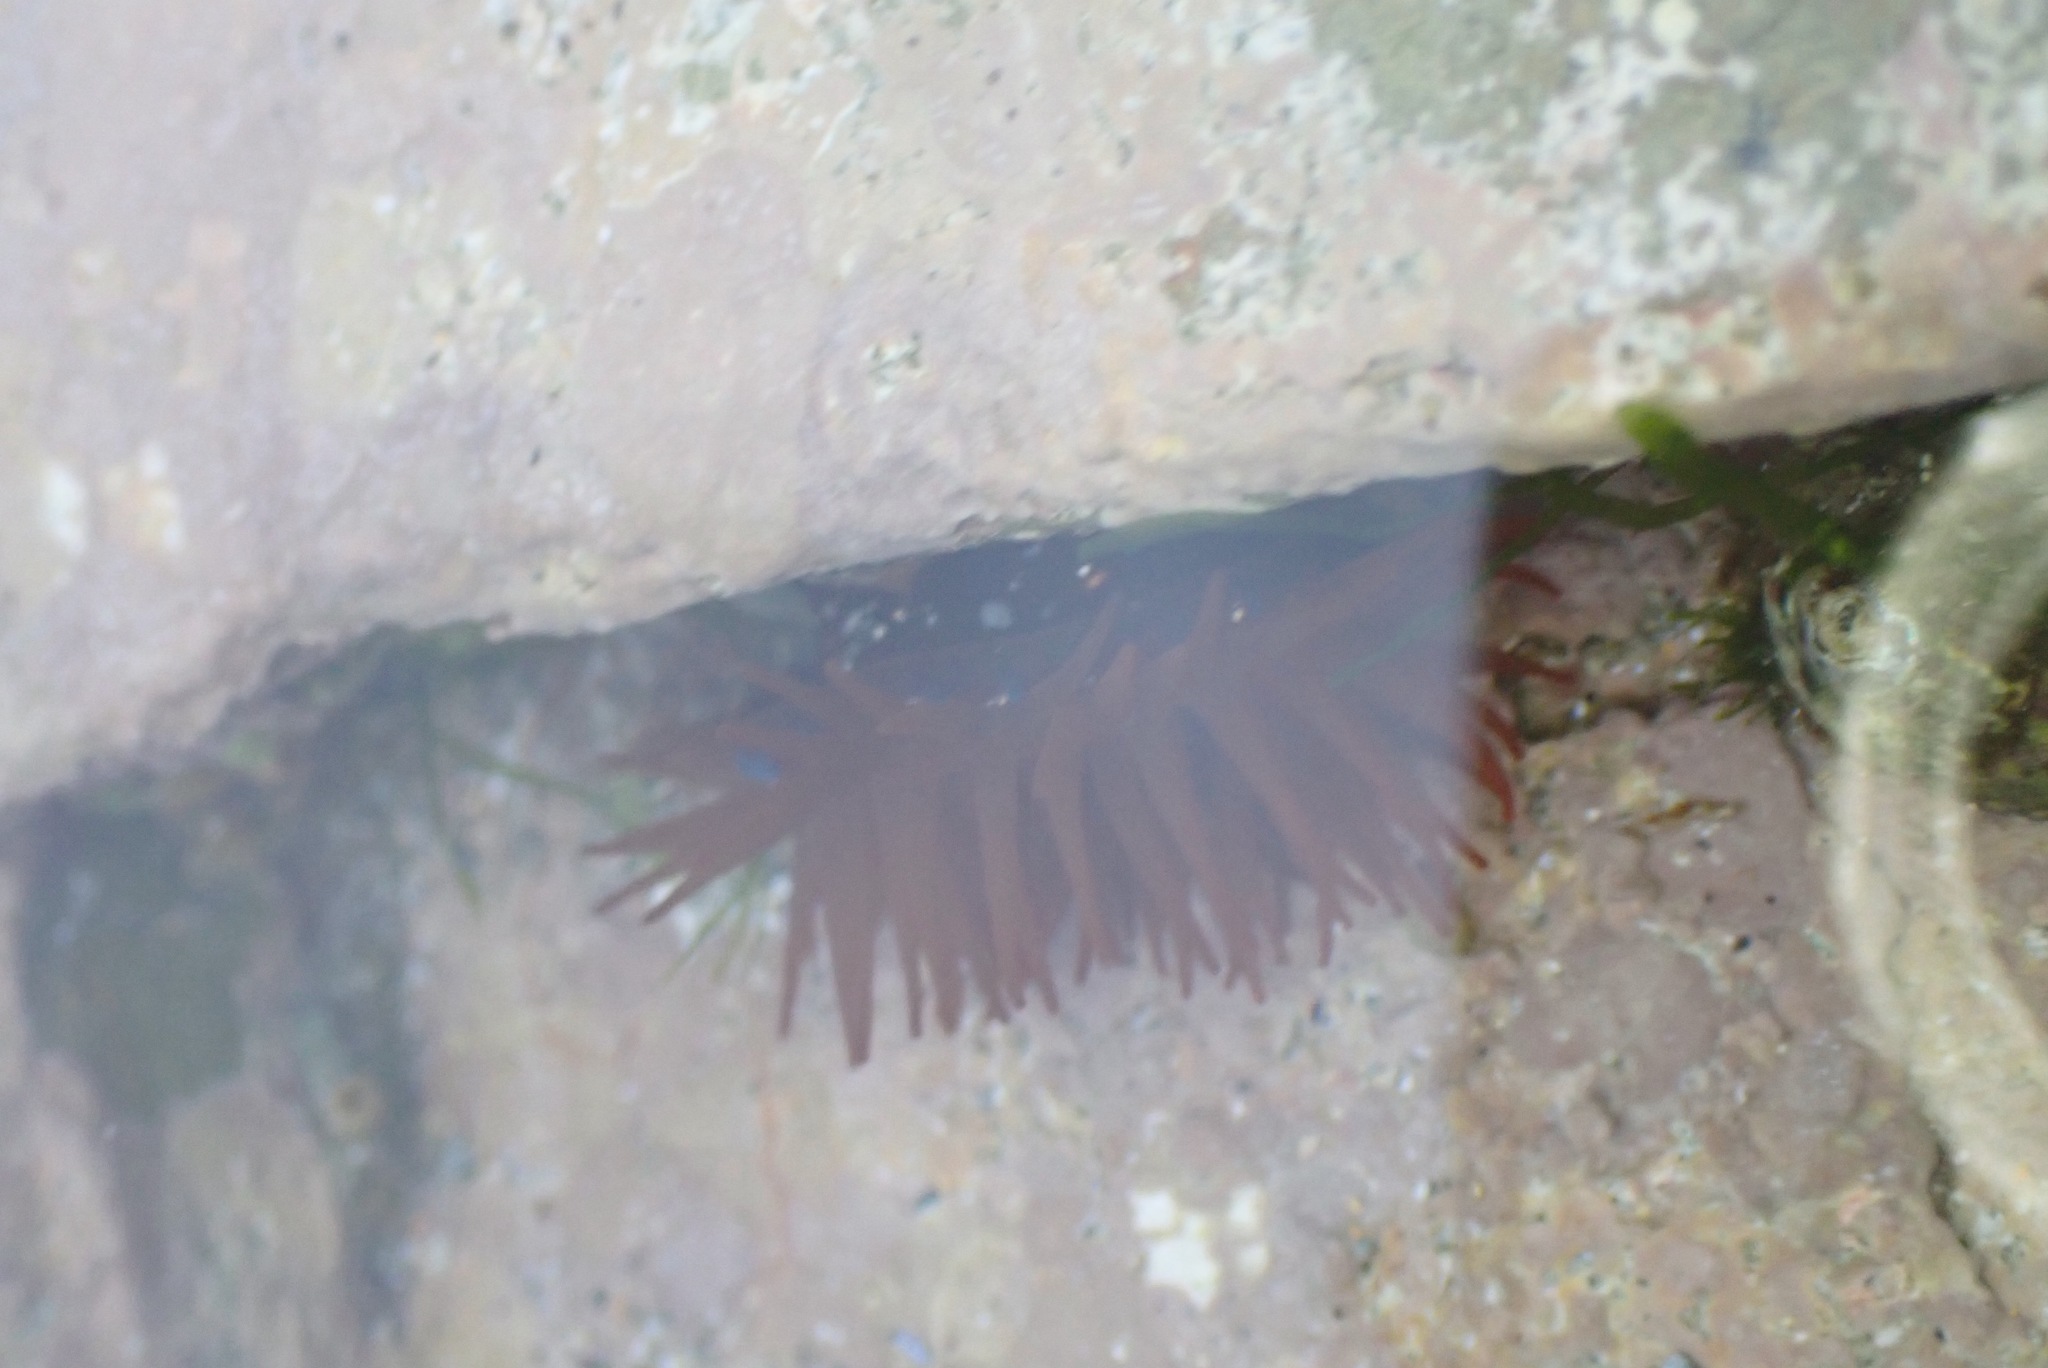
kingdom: Animalia
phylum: Cnidaria
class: Anthozoa
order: Actiniaria
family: Actiniidae
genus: Actinia
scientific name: Actinia equina
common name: Beadlet anemone
